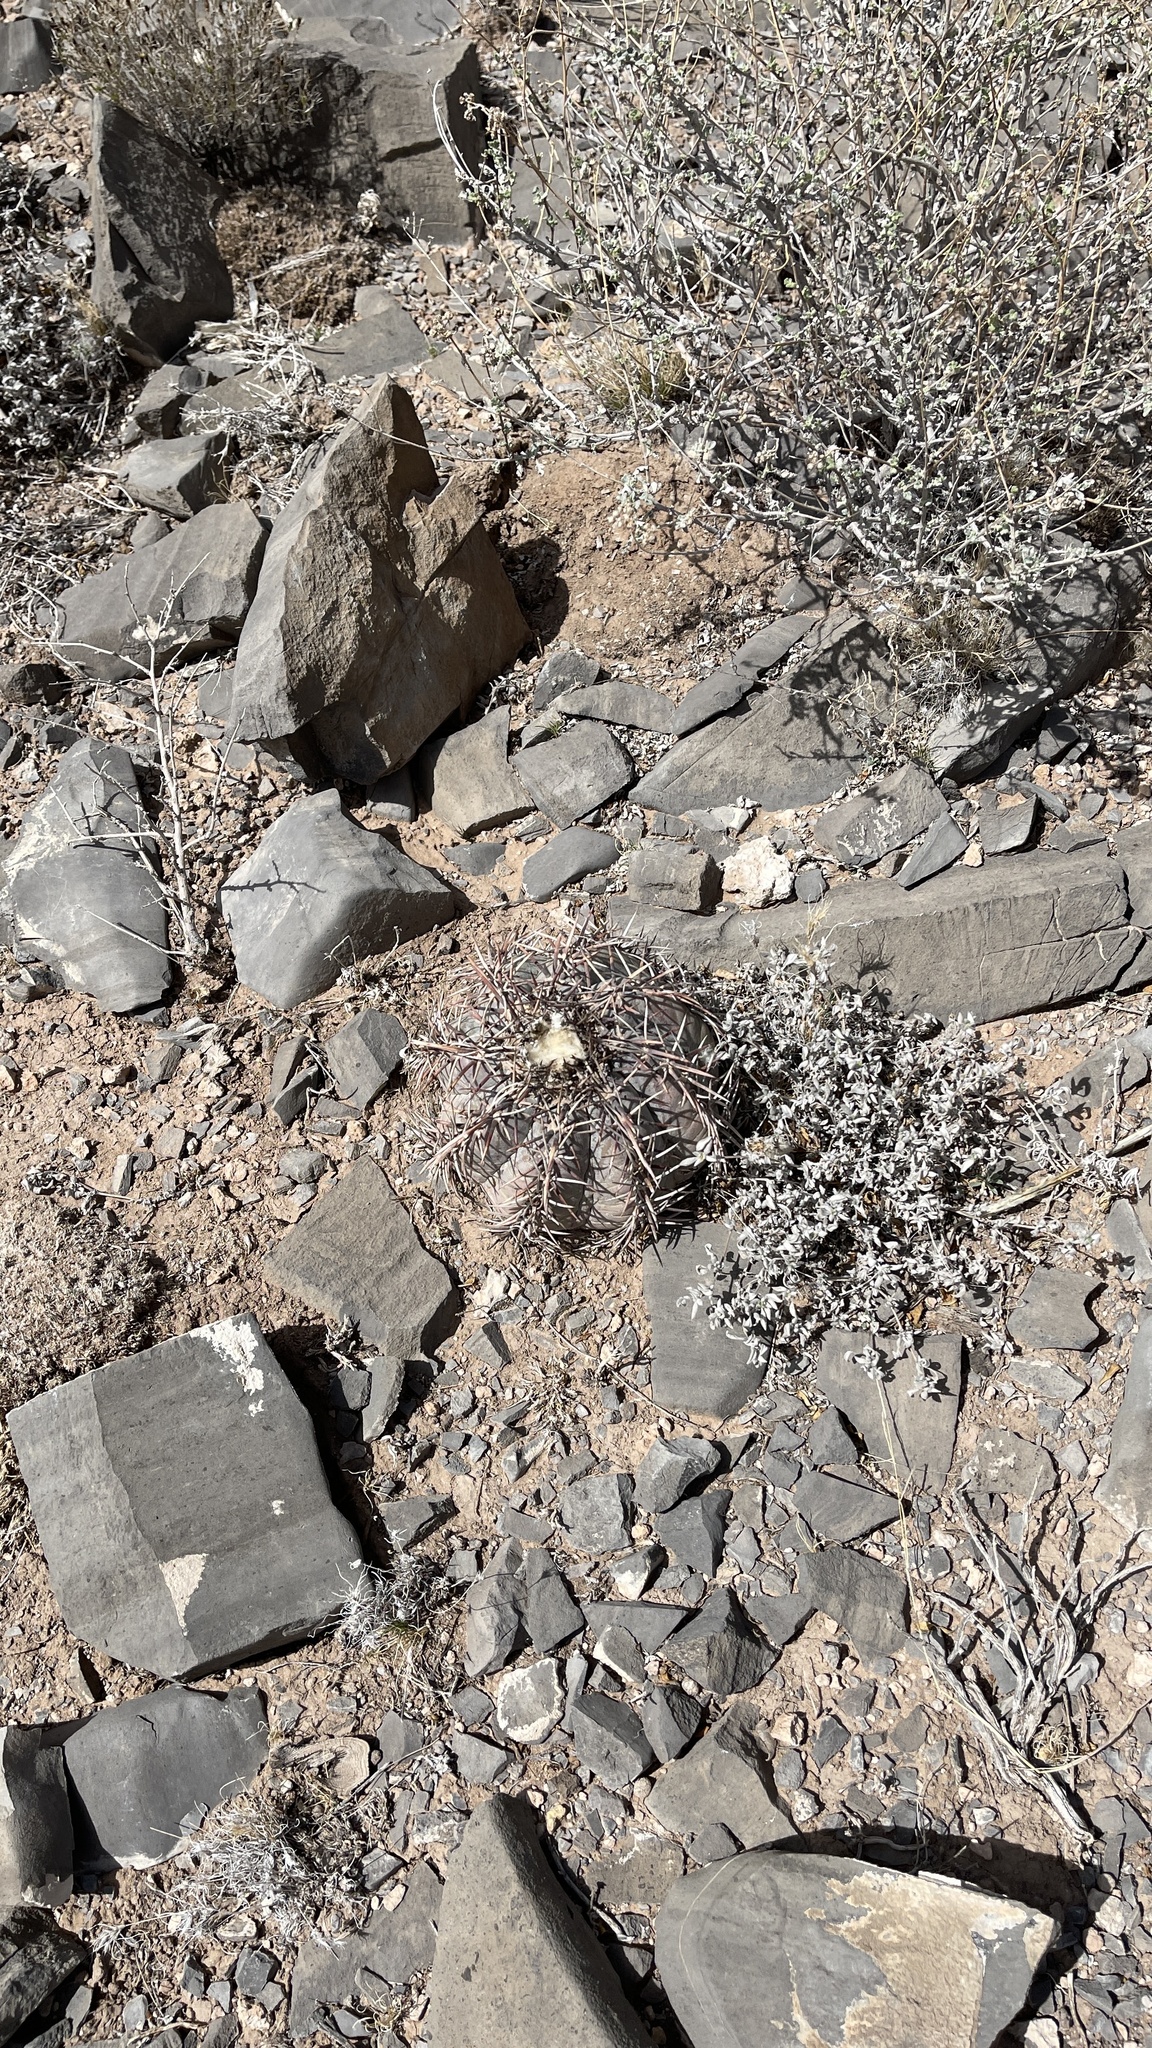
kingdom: Plantae
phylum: Tracheophyta
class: Magnoliopsida
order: Caryophyllales
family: Cactaceae
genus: Echinocactus
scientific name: Echinocactus horizonthalonius
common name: Devilshead
